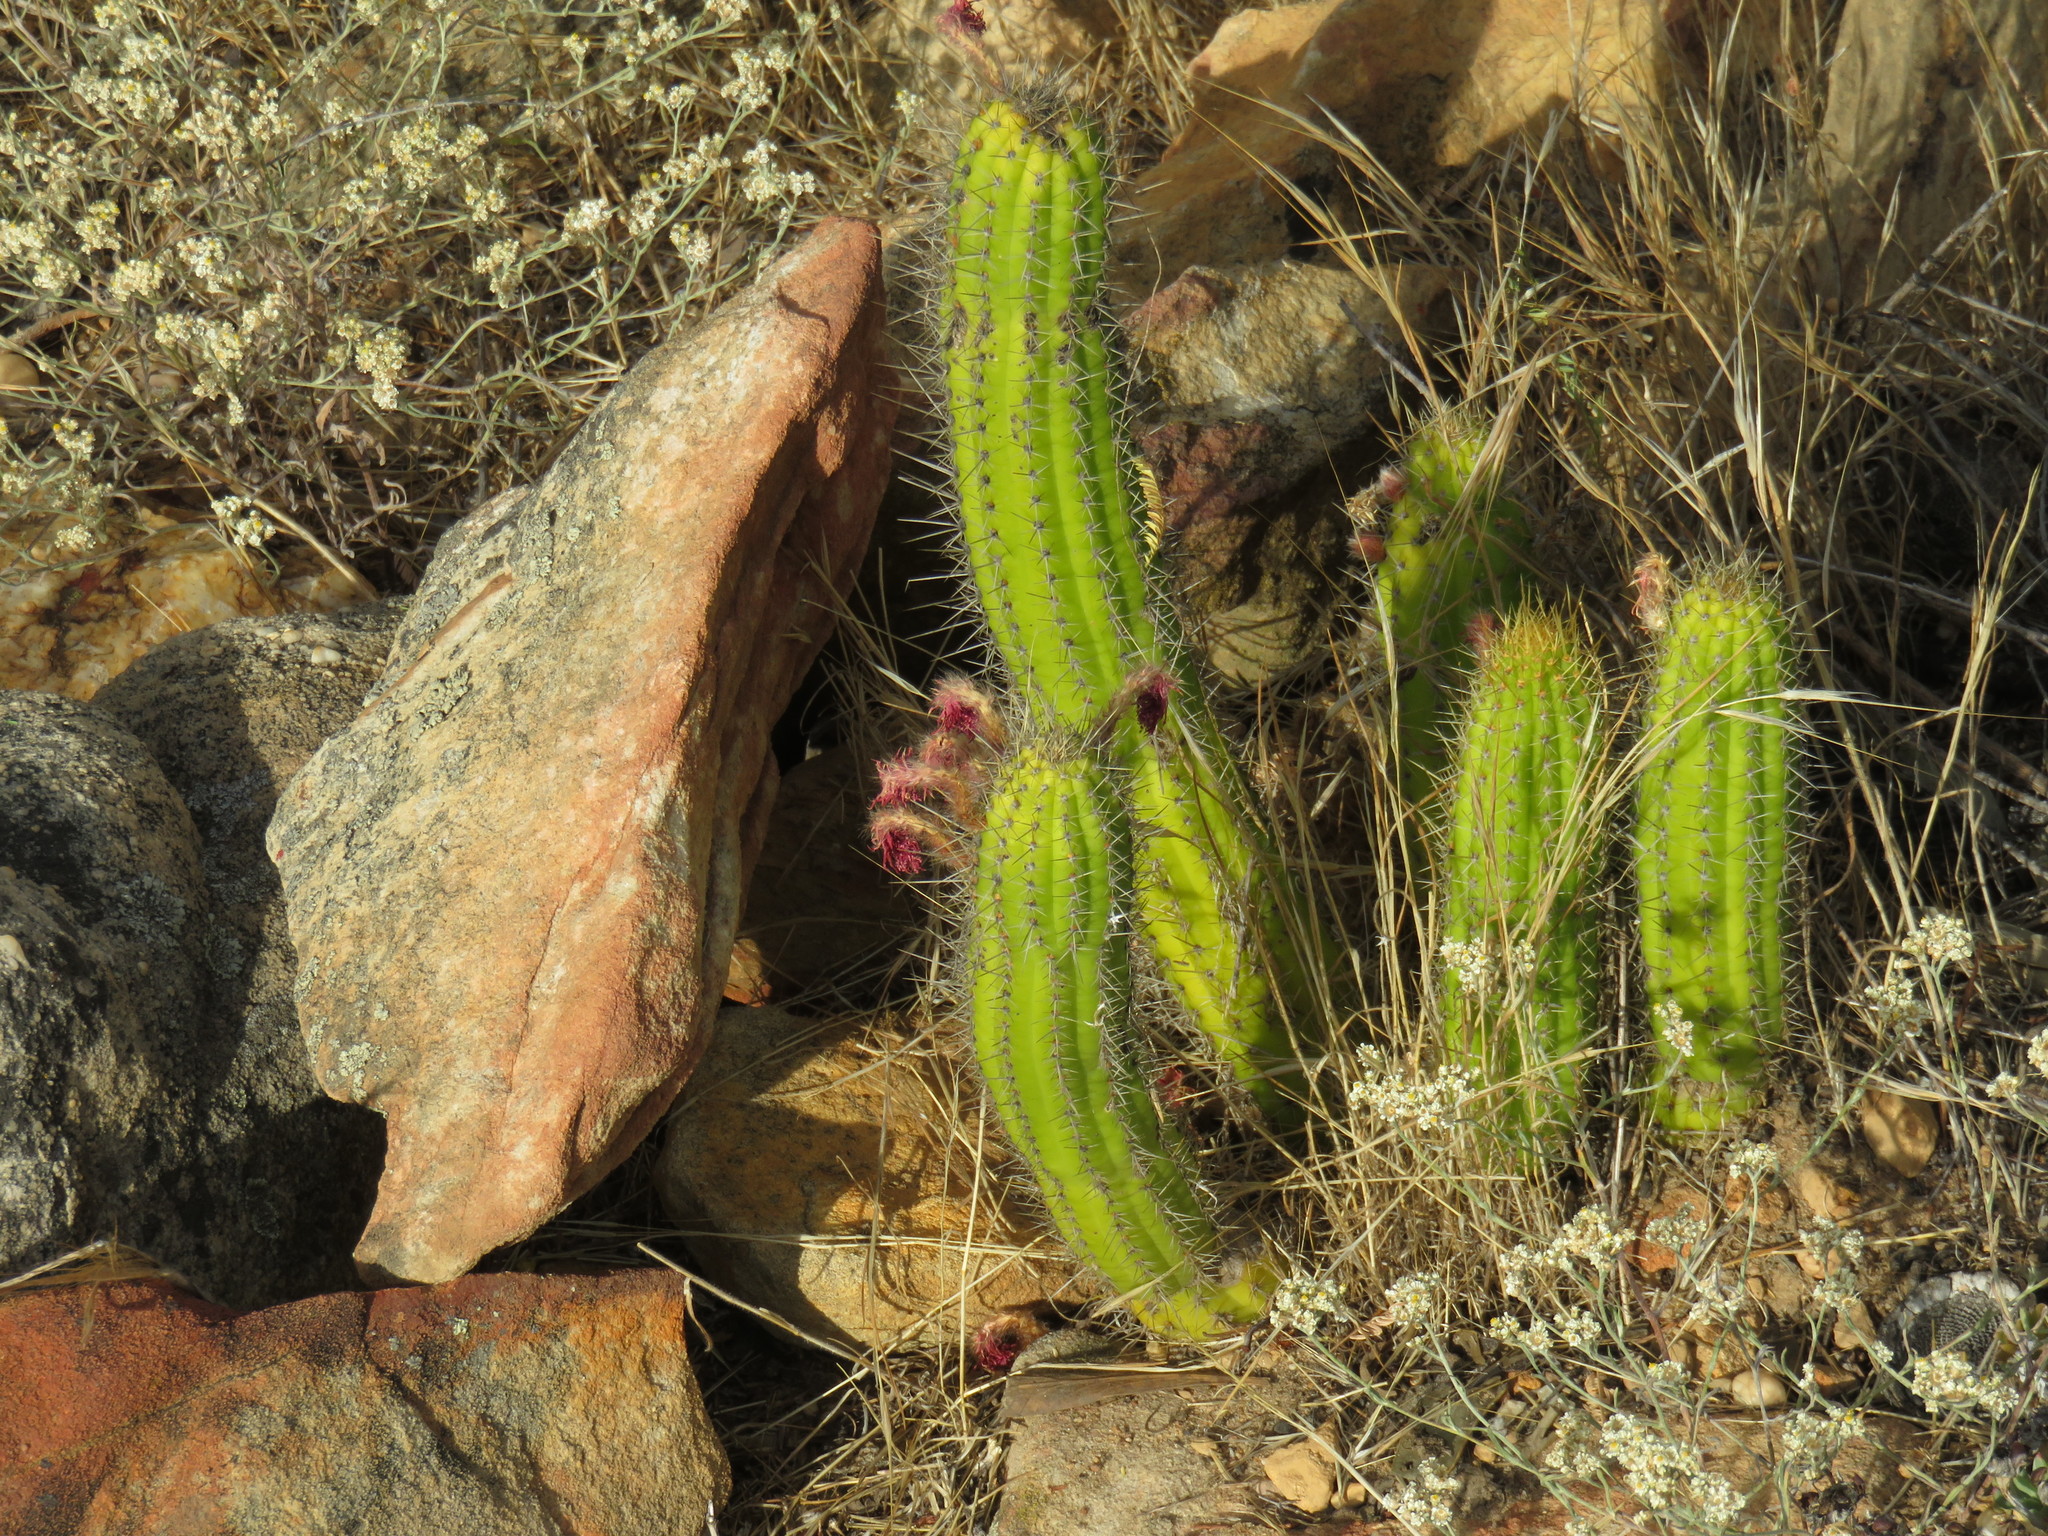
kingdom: Plantae
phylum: Tracheophyta
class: Magnoliopsida
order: Caryophyllales
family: Cactaceae
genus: Borzicactus
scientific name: Borzicactus samaipatanus
